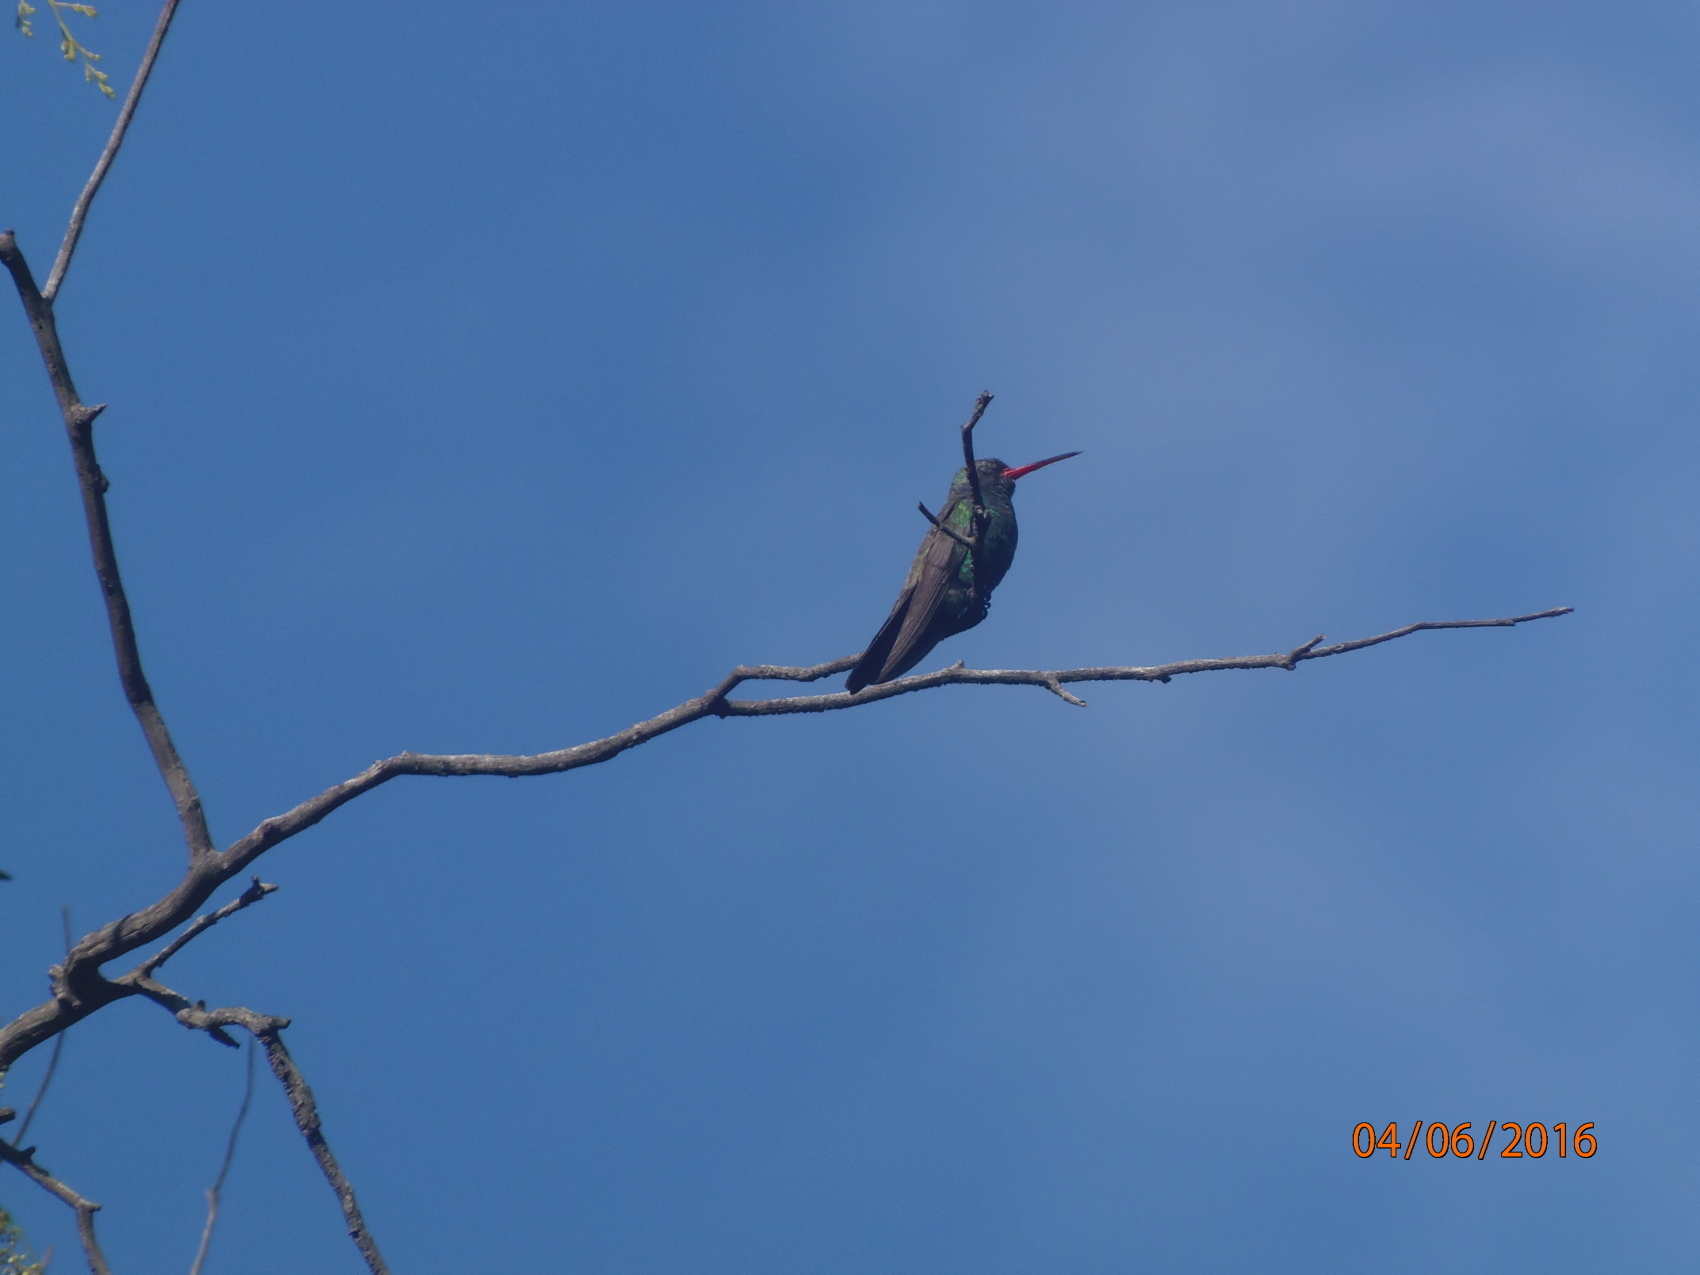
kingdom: Animalia
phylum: Chordata
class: Aves
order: Apodiformes
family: Trochilidae
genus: Cynanthus
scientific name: Cynanthus latirostris
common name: Broad-billed hummingbird
